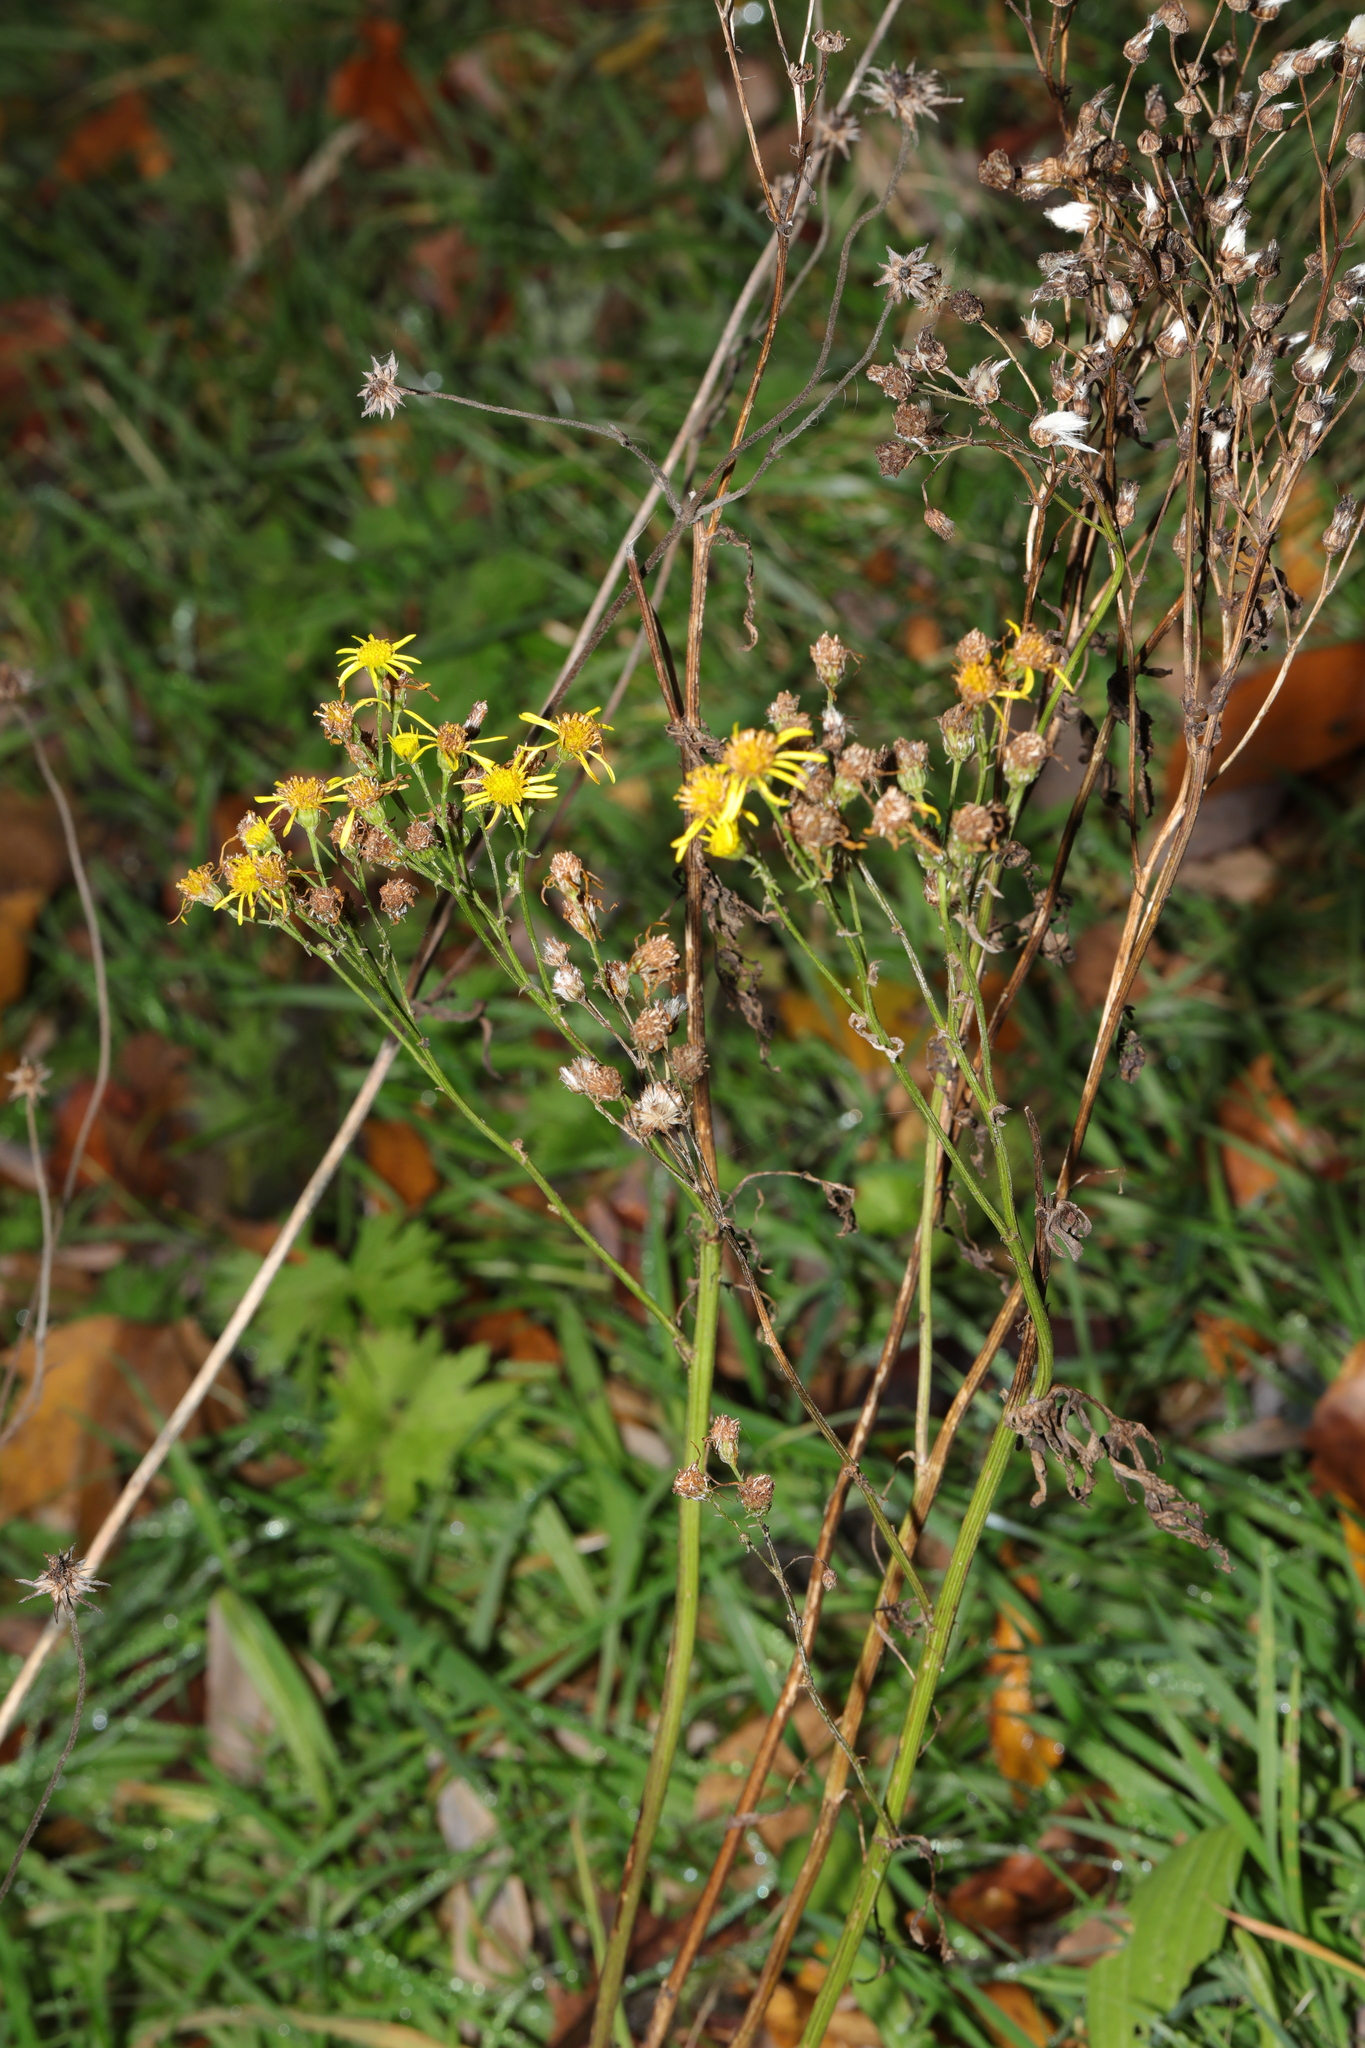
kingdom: Plantae
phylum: Tracheophyta
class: Magnoliopsida
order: Asterales
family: Asteraceae
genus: Jacobaea
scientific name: Jacobaea vulgaris
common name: Stinking willie
